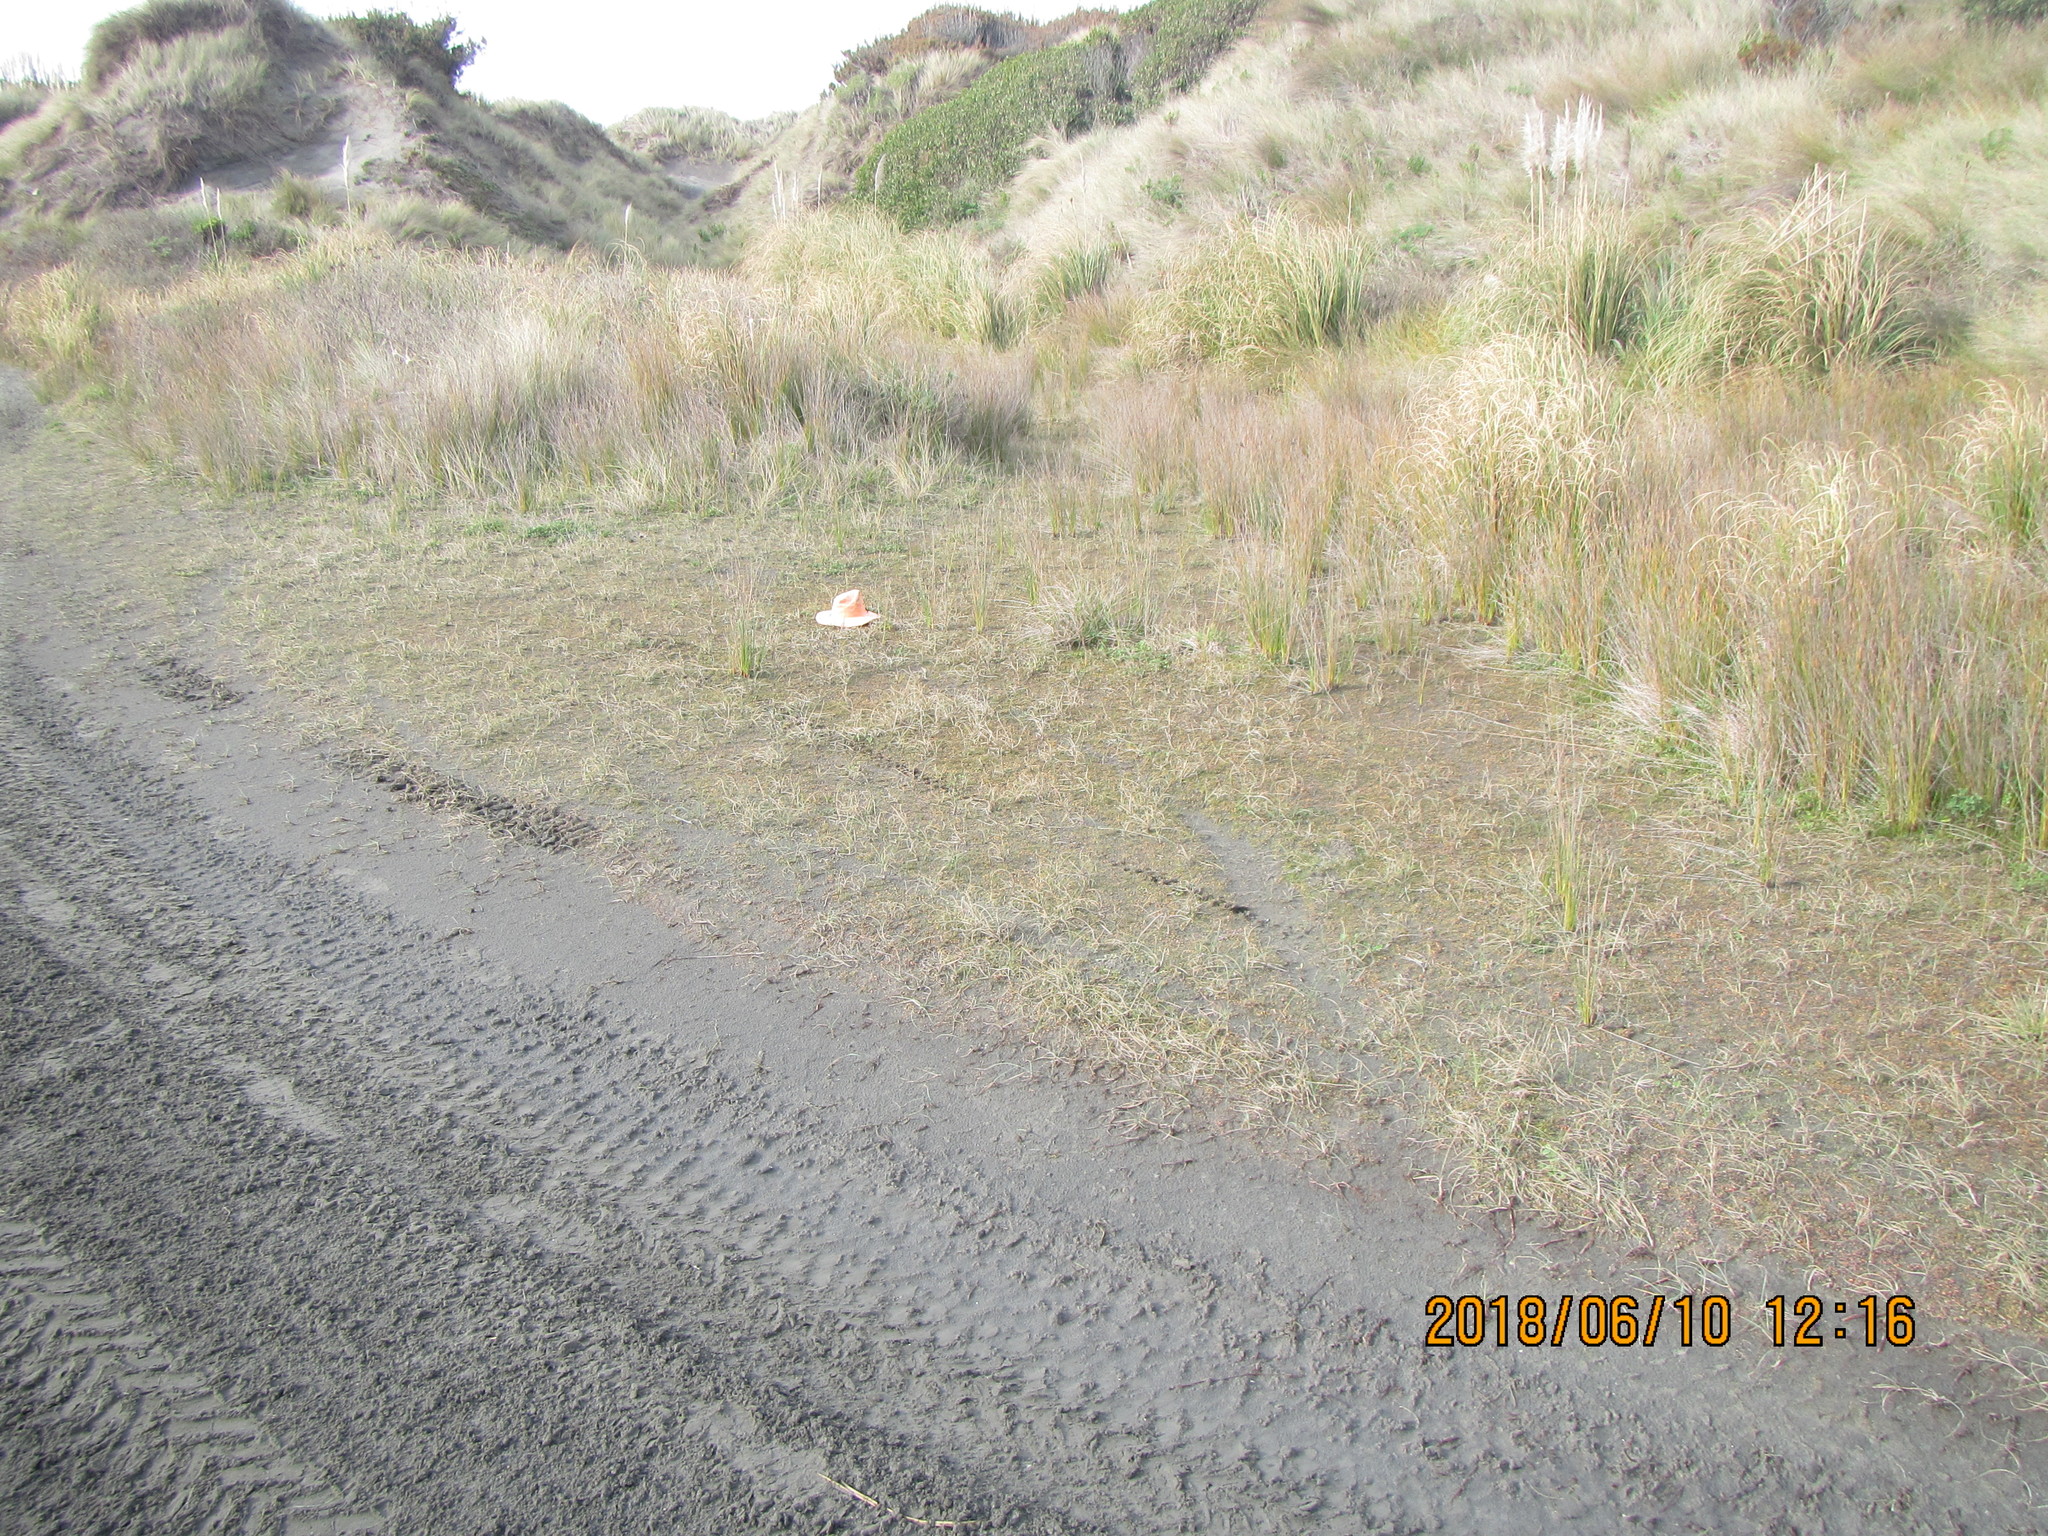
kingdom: Plantae
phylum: Tracheophyta
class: Magnoliopsida
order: Apiales
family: Apiaceae
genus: Lilaeopsis
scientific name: Lilaeopsis novae-zelandiae
